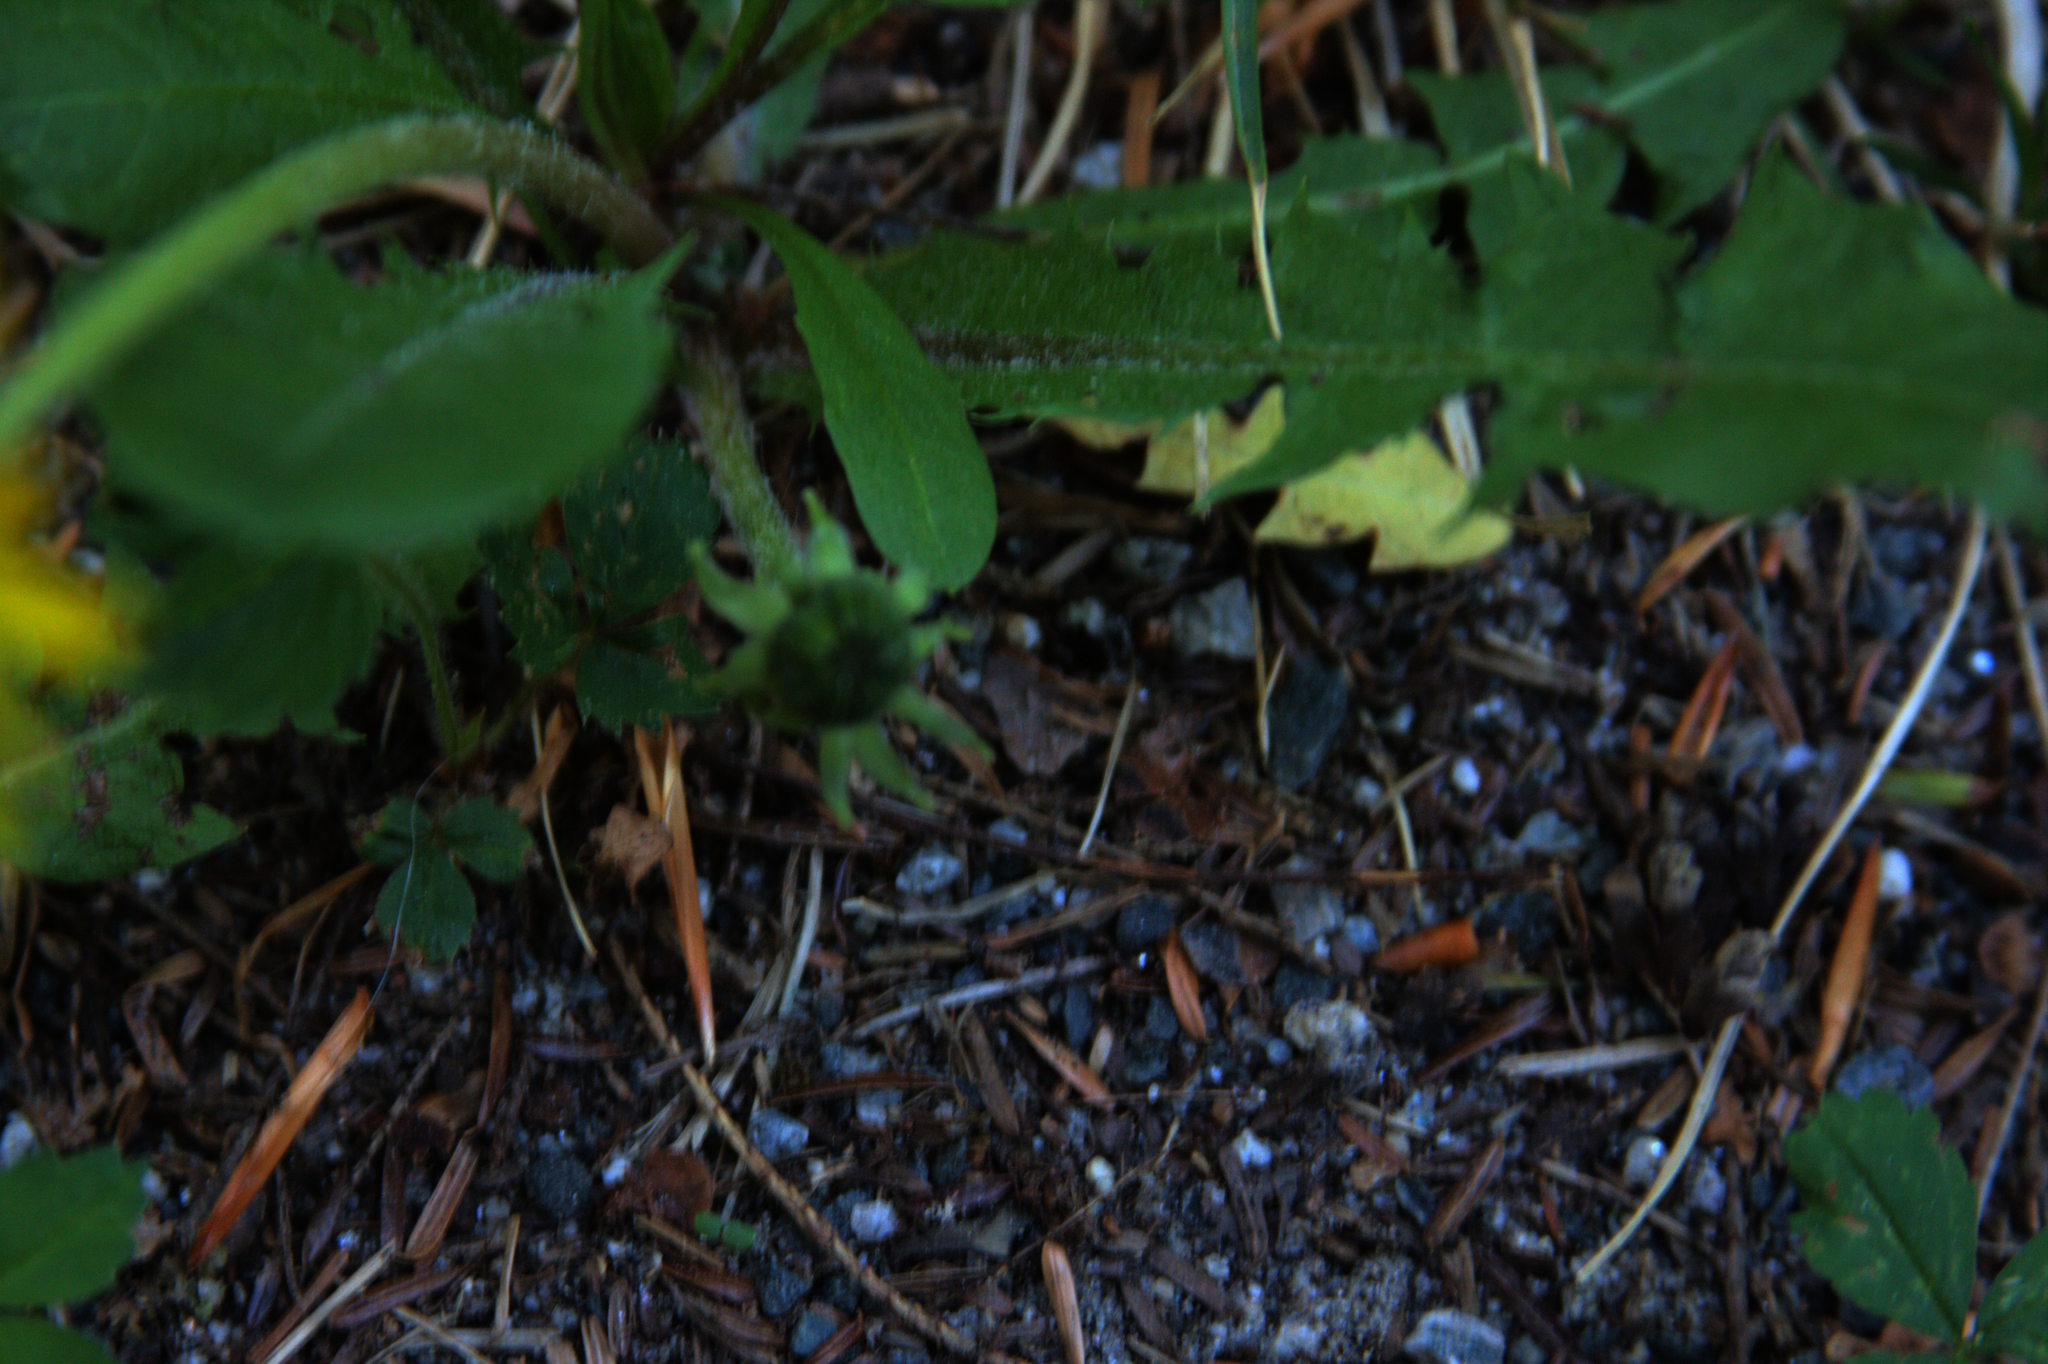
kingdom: Plantae
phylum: Tracheophyta
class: Magnoliopsida
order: Asterales
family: Asteraceae
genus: Taraxacum
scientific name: Taraxacum officinale
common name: Common dandelion
